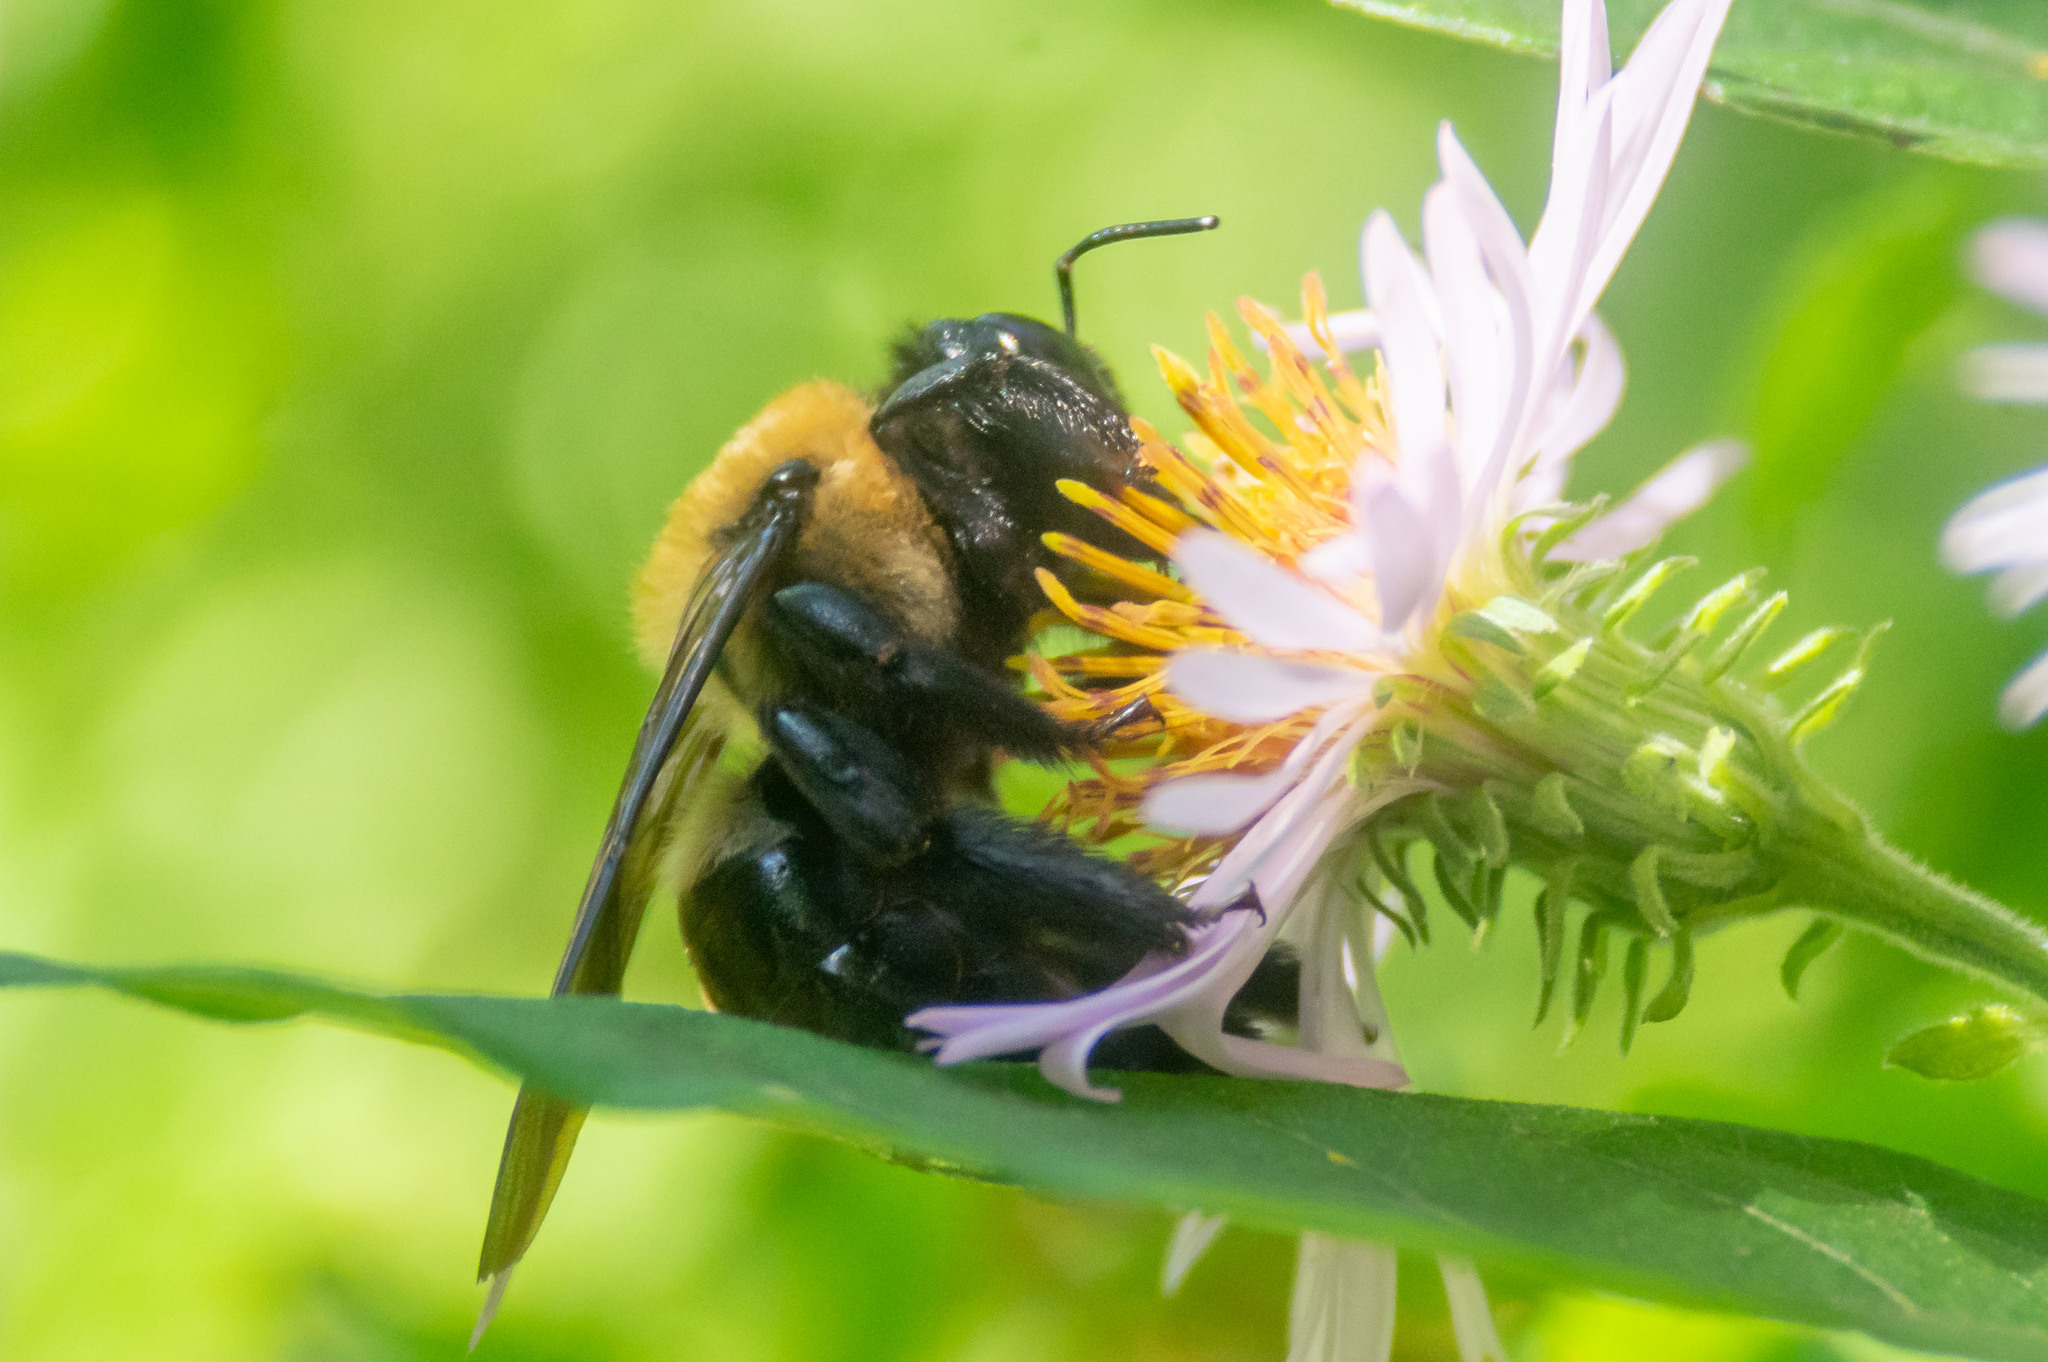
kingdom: Animalia
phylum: Arthropoda
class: Insecta
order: Hymenoptera
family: Apidae
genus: Xylocopa
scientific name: Xylocopa virginica
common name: Carpenter bee
